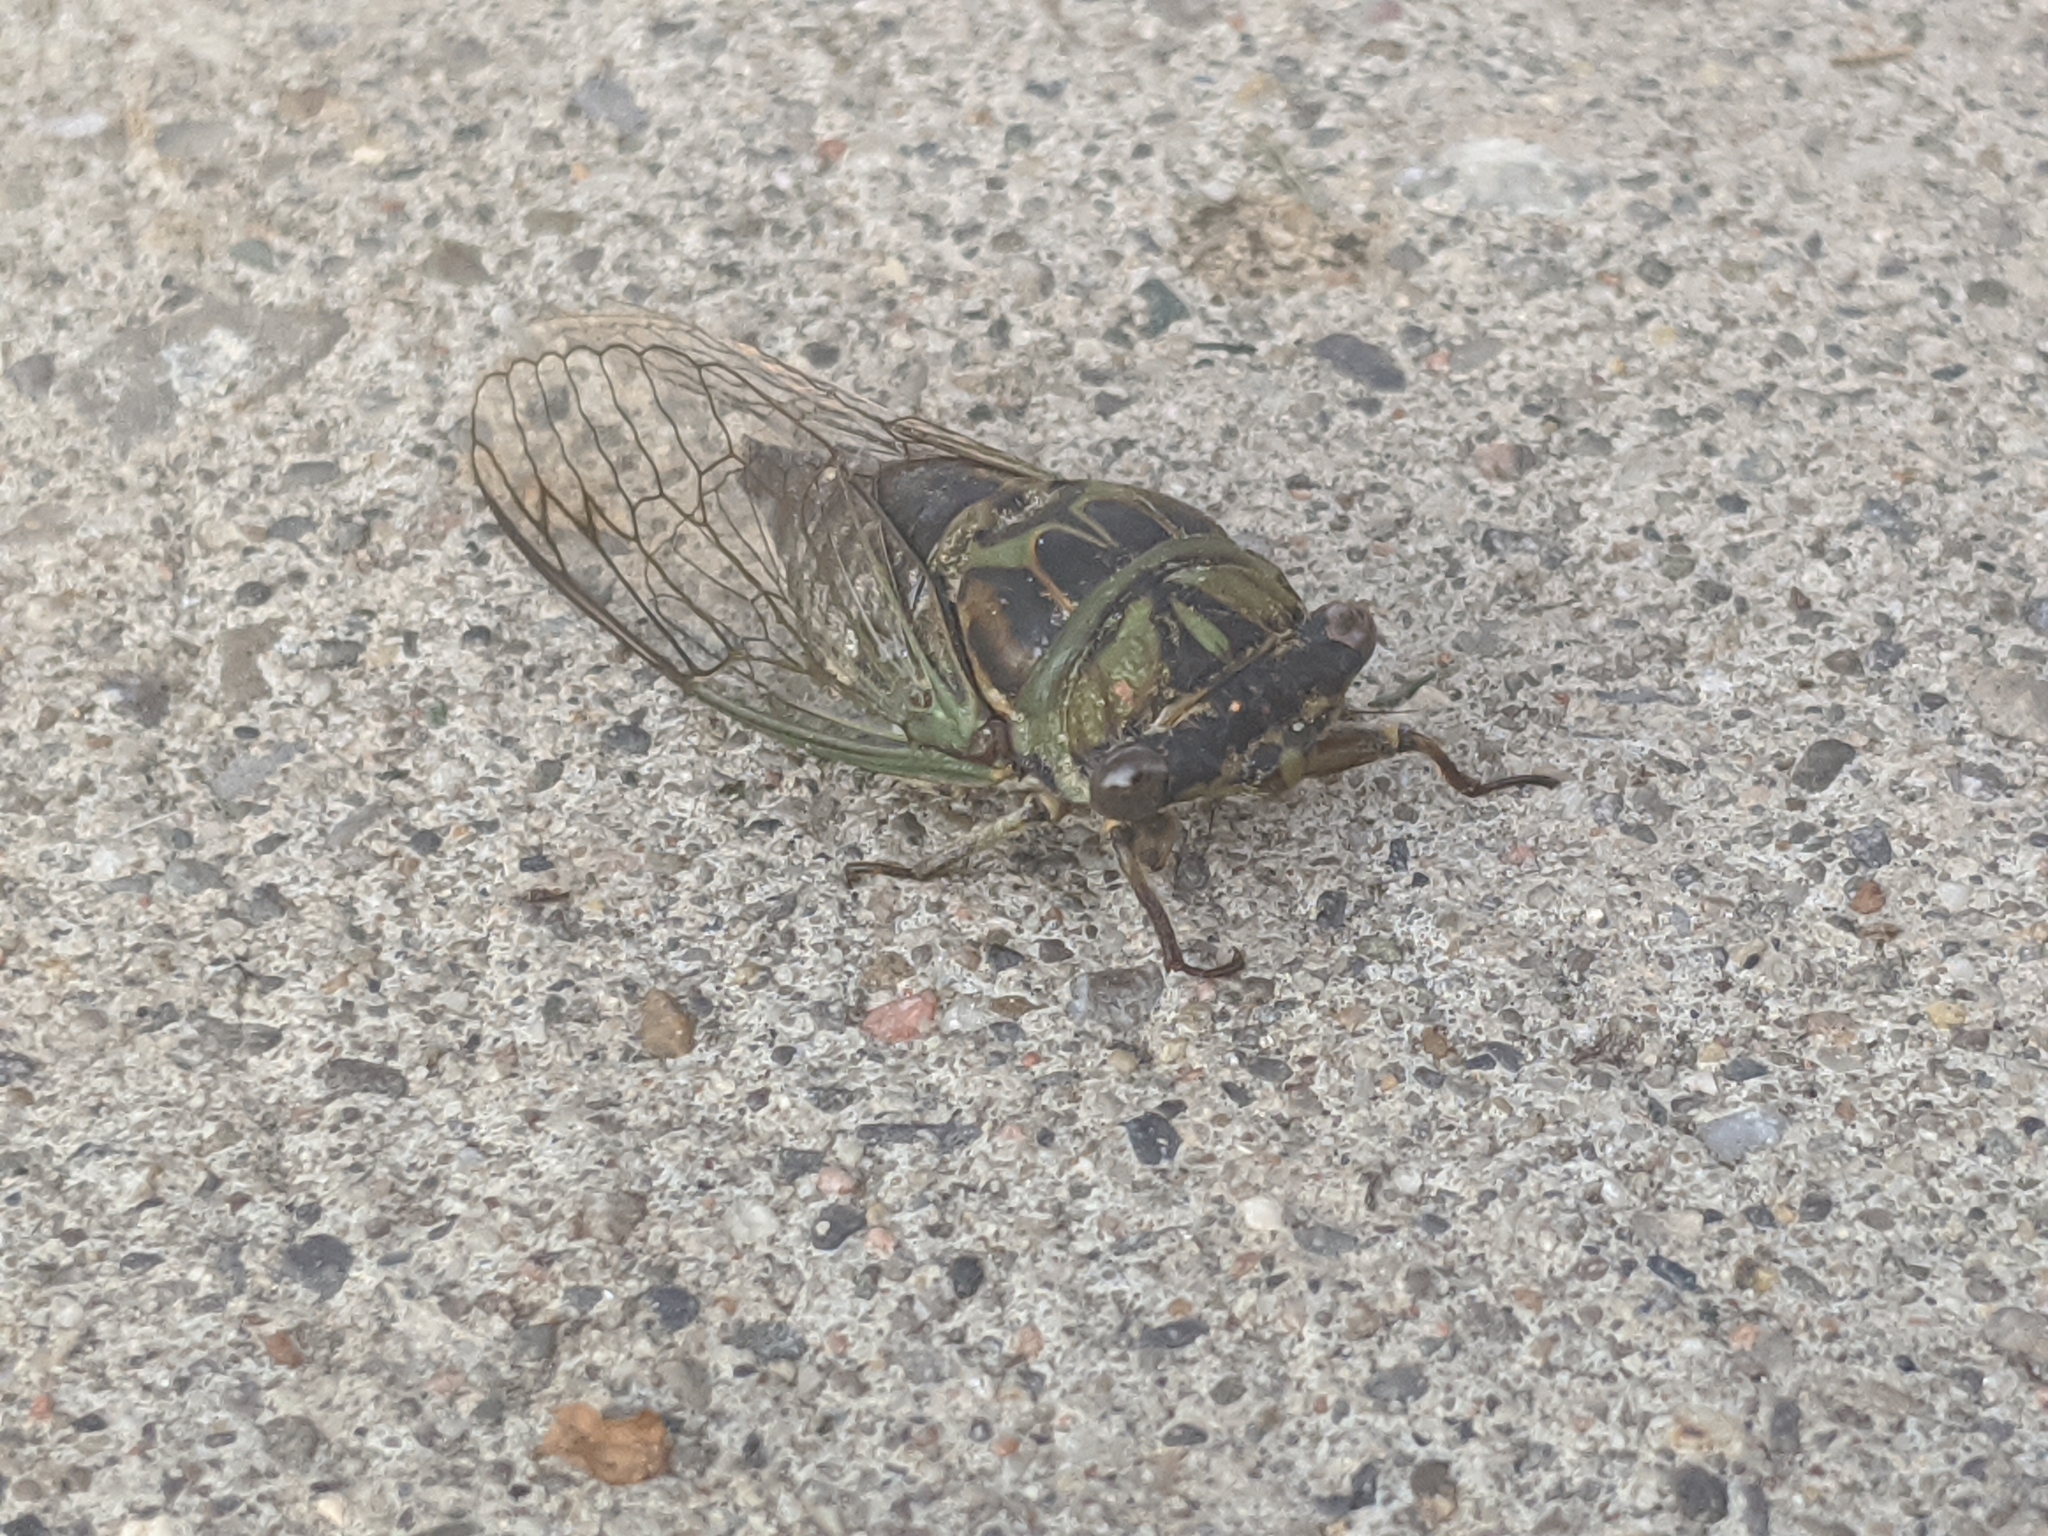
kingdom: Animalia
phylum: Arthropoda
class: Insecta
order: Hemiptera
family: Cicadidae
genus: Neotibicen
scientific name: Neotibicen canicularis
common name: God-day cicada
